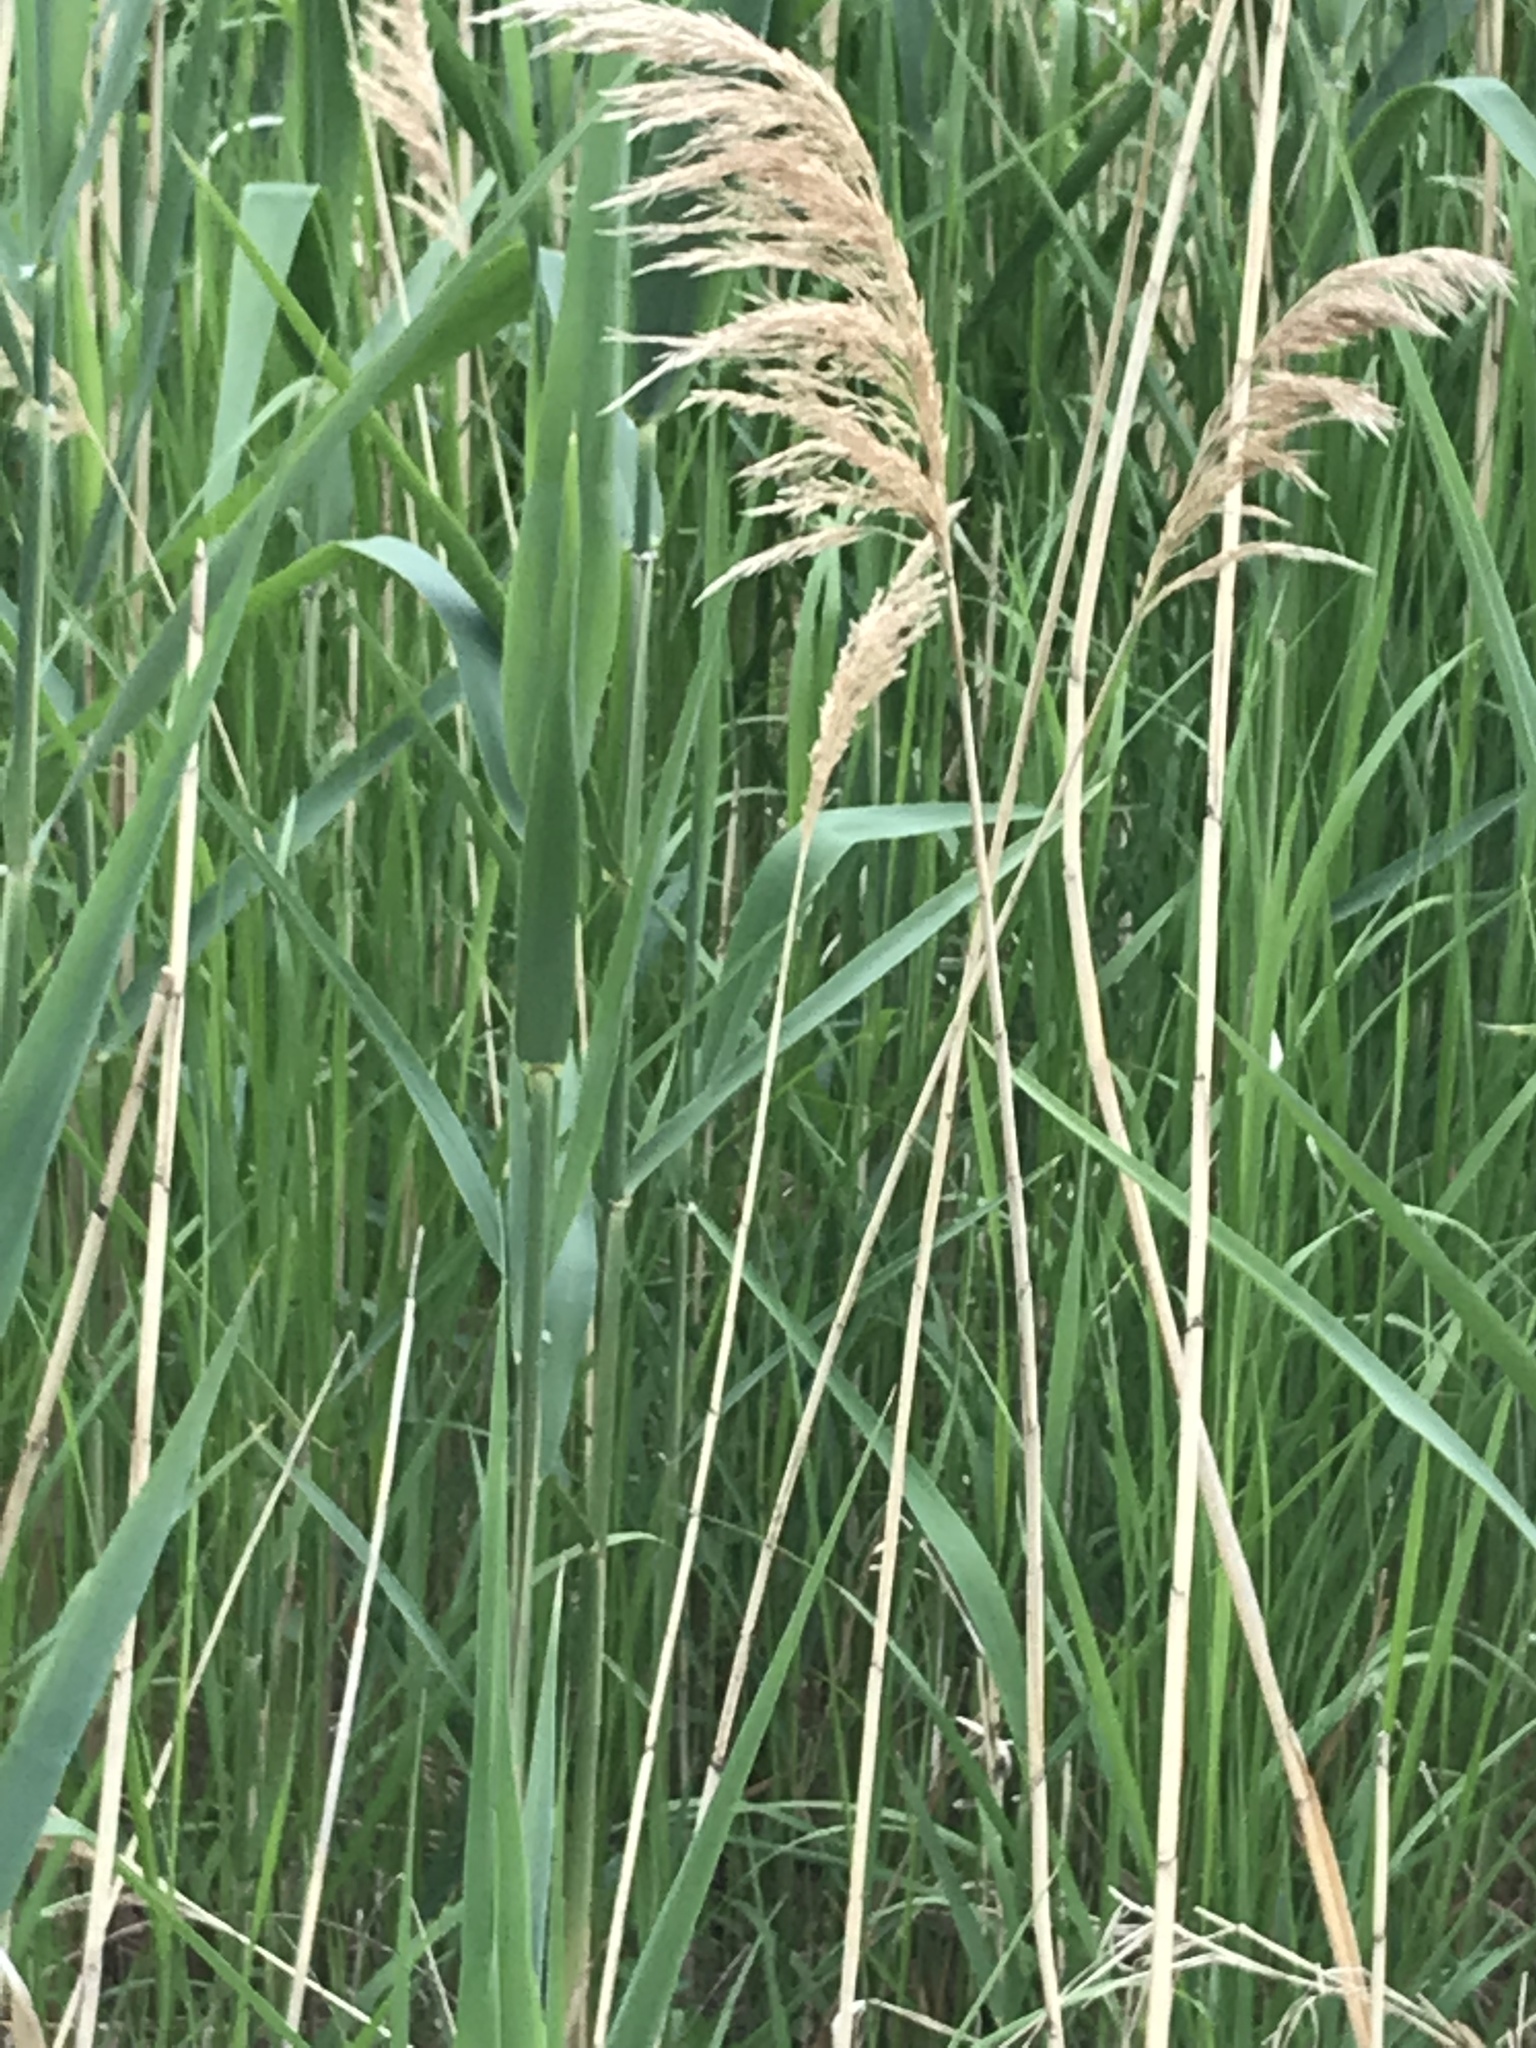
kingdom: Plantae
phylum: Tracheophyta
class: Liliopsida
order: Poales
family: Poaceae
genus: Phragmites
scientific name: Phragmites australis
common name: Common reed
